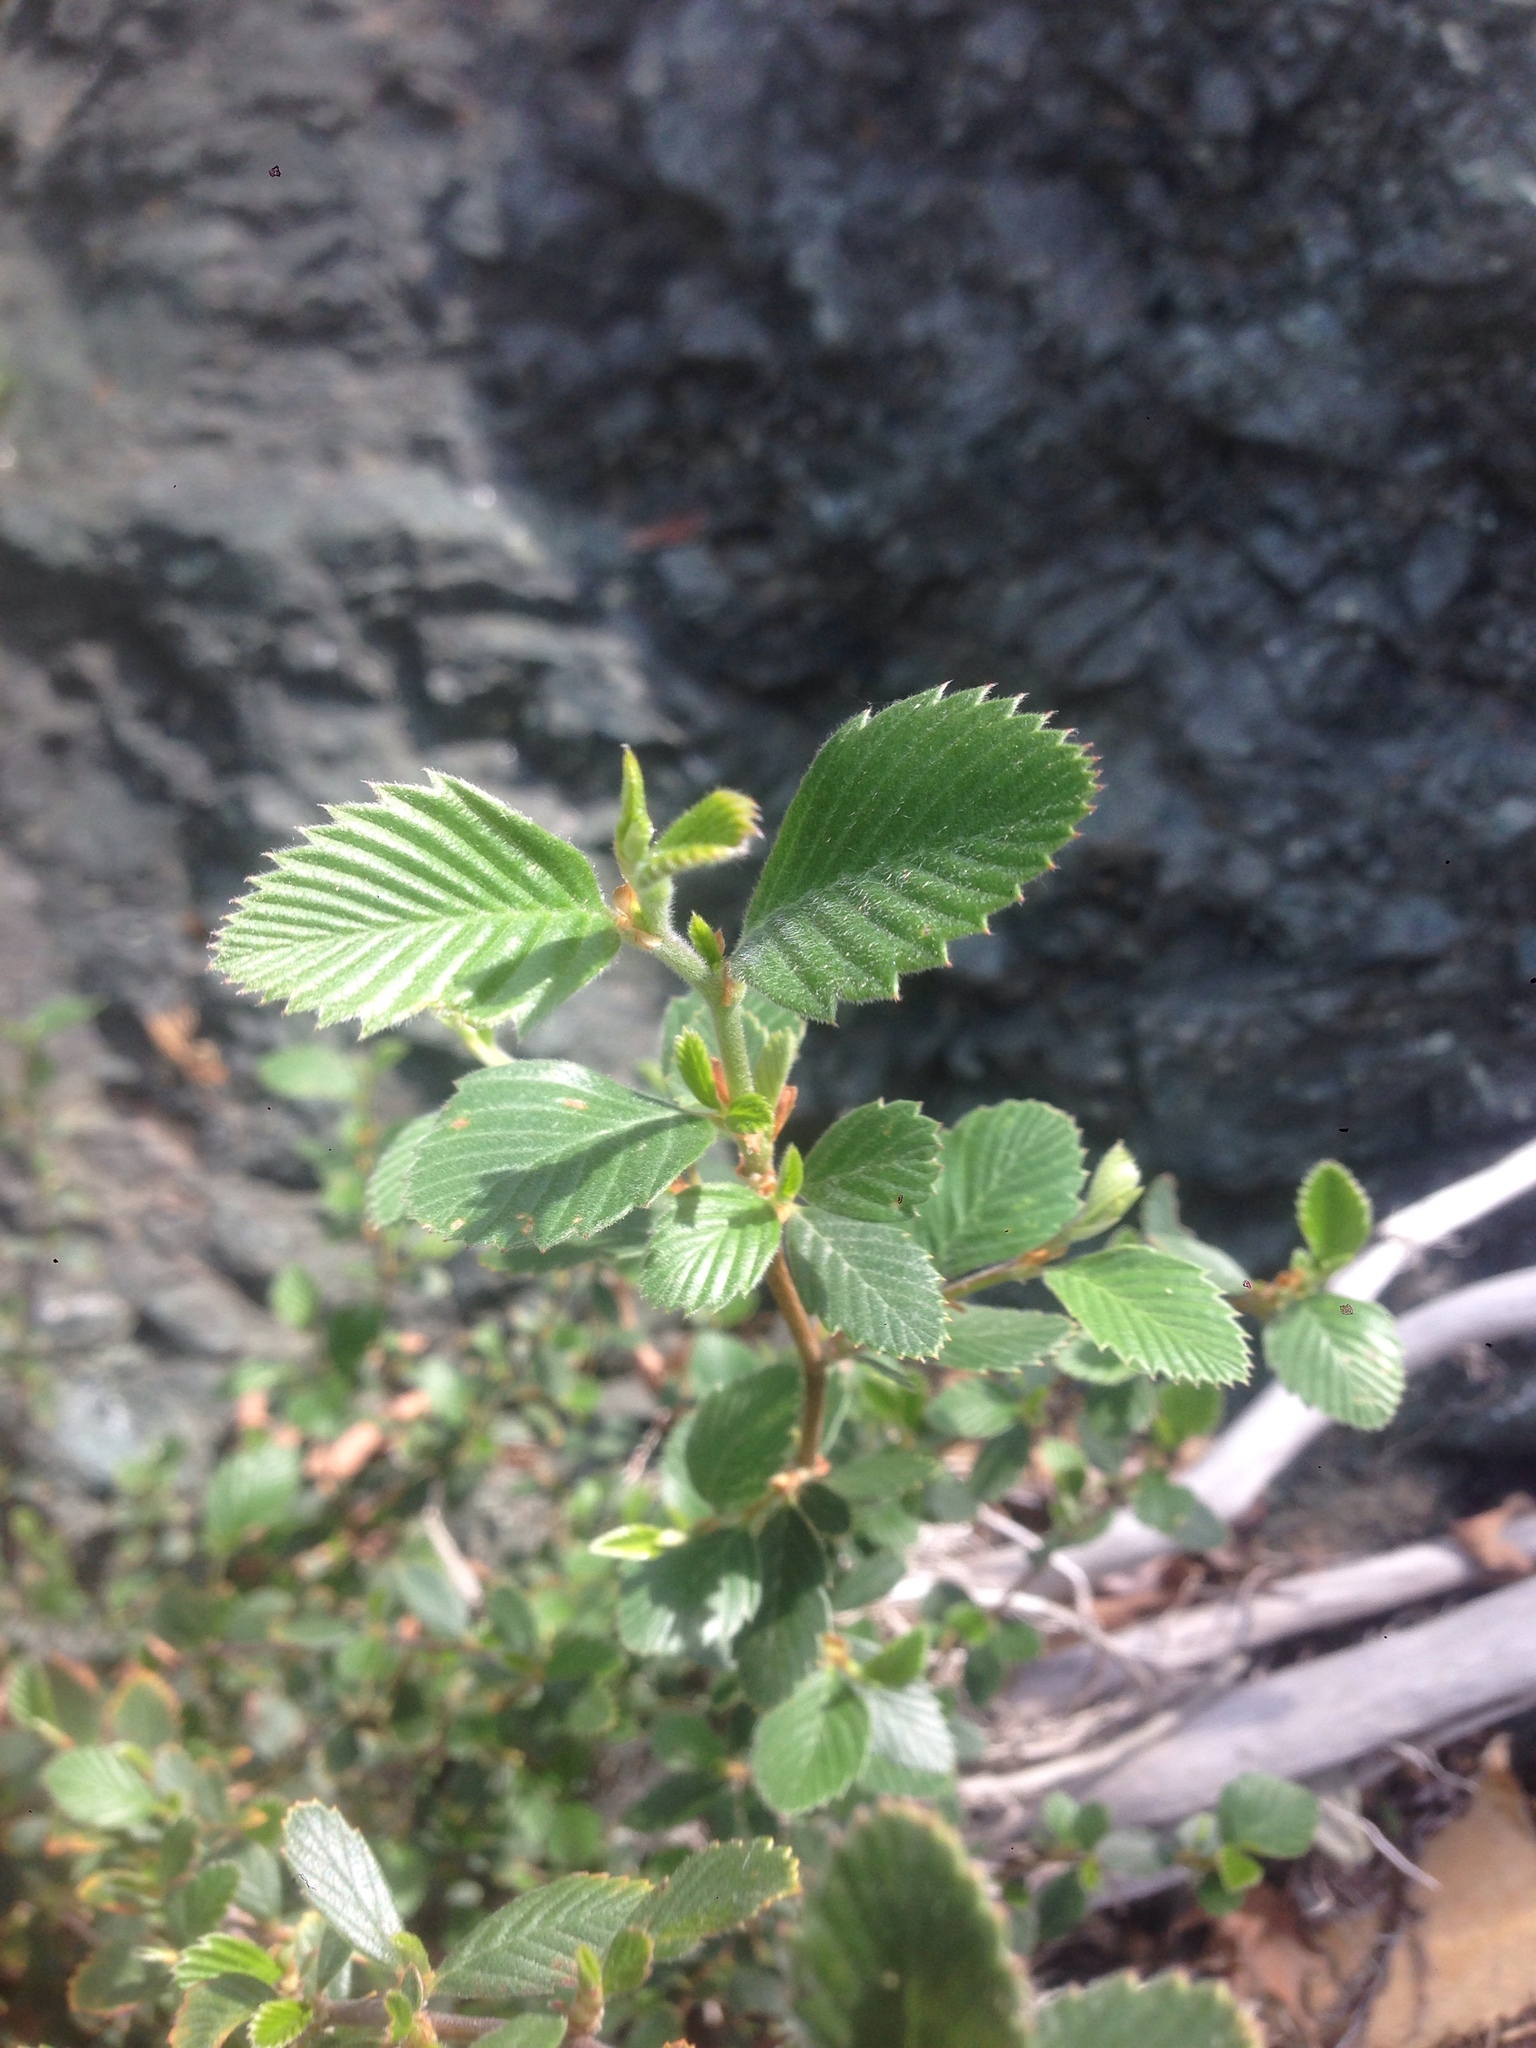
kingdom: Plantae
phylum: Tracheophyta
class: Magnoliopsida
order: Rosales
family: Rosaceae
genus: Cercocarpus
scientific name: Cercocarpus betuloides
